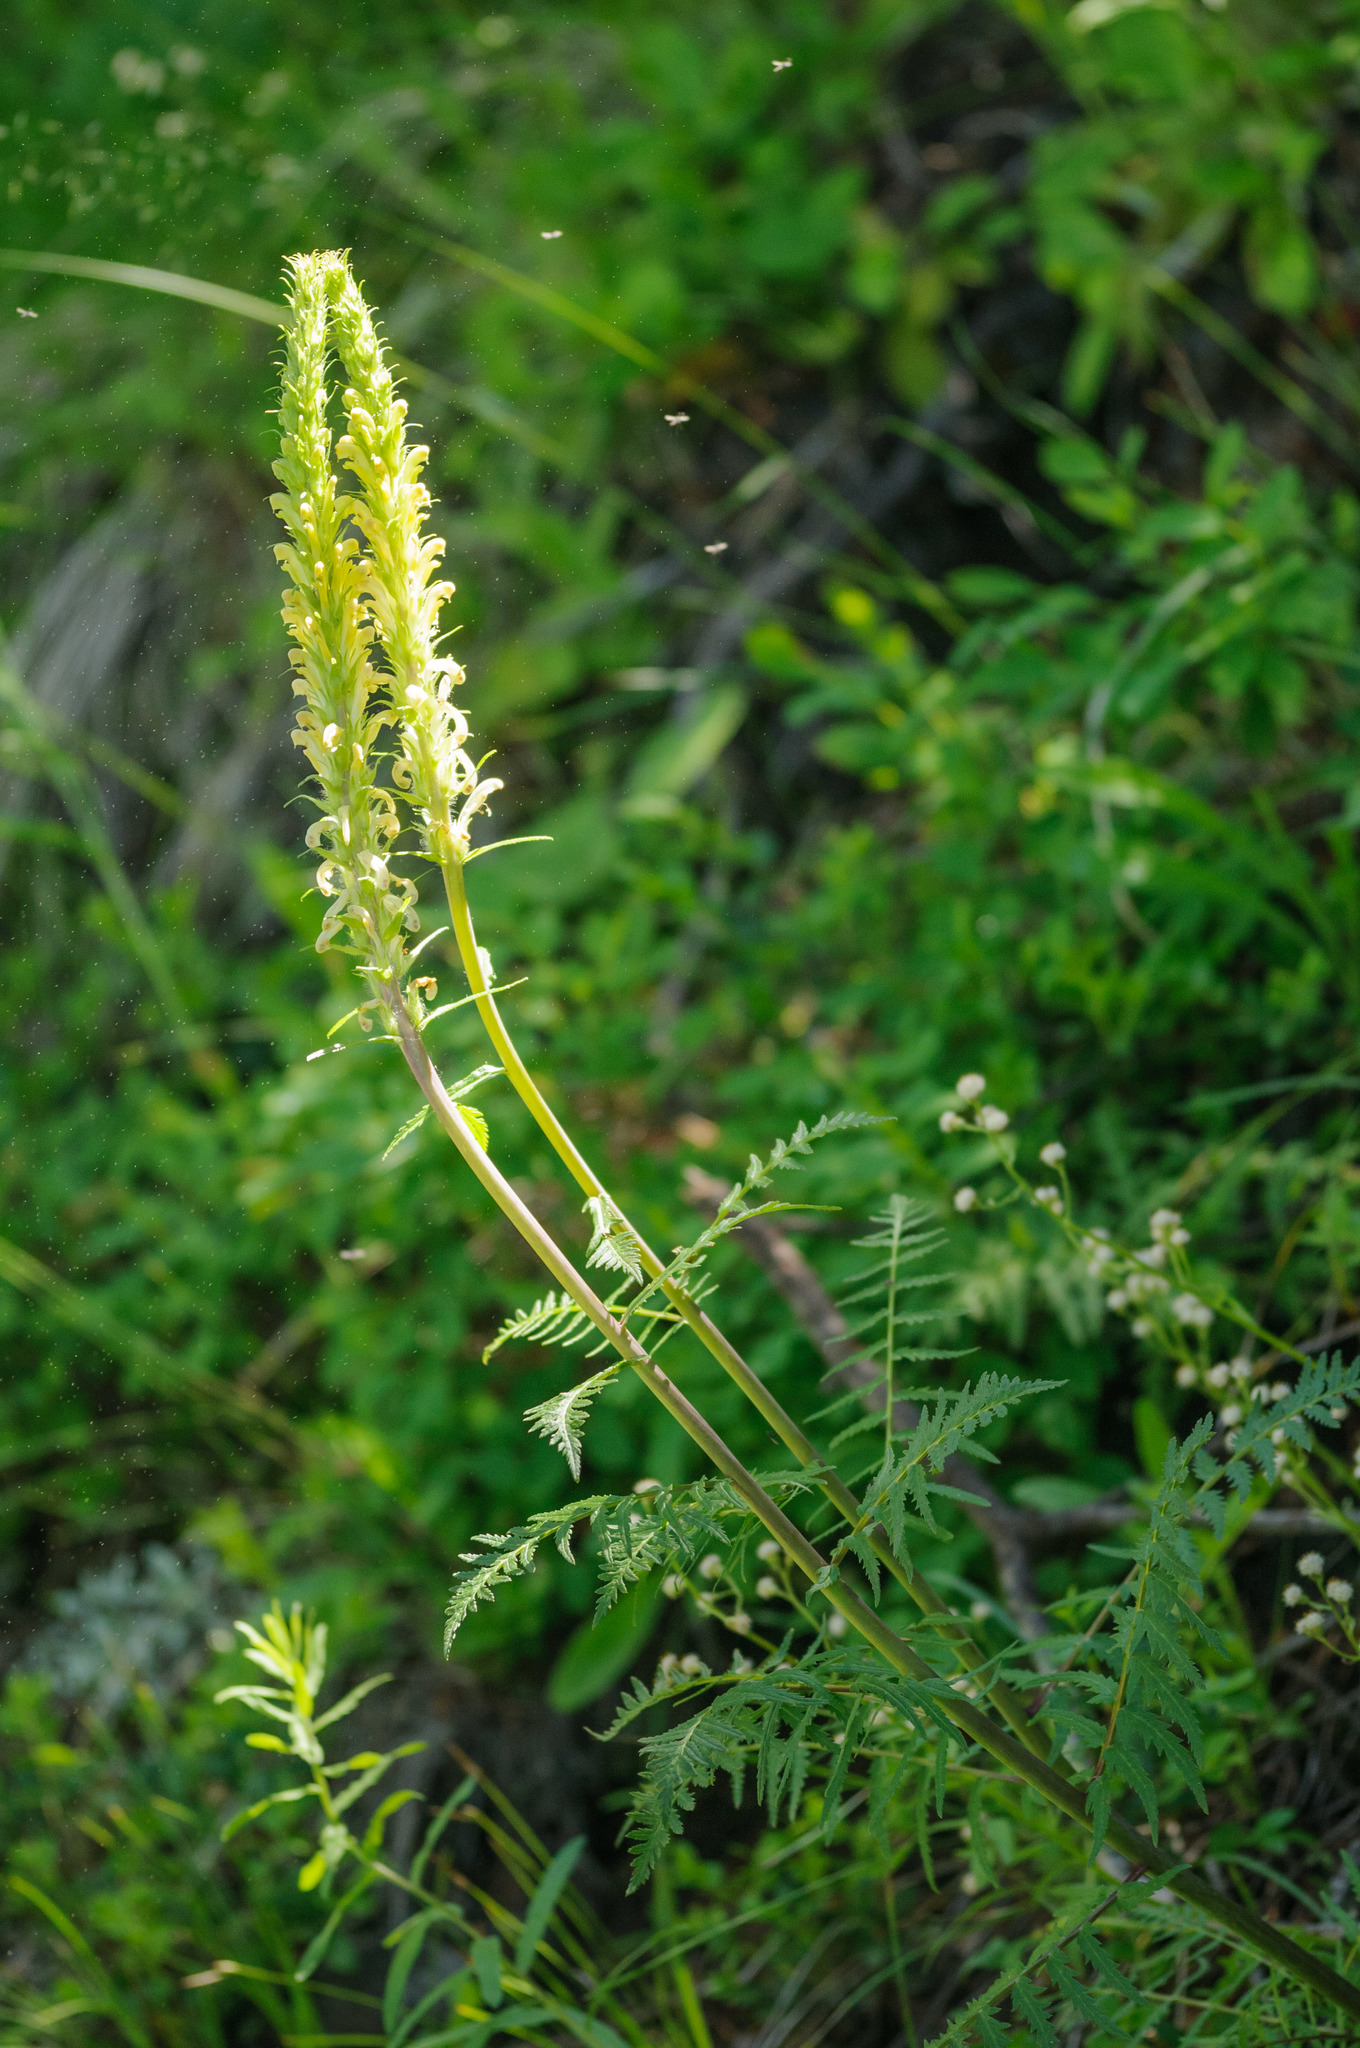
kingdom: Plantae
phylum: Tracheophyta
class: Magnoliopsida
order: Lamiales
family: Orobanchaceae
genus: Pedicularis
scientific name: Pedicularis bracteosa
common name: Bracted lousewort
